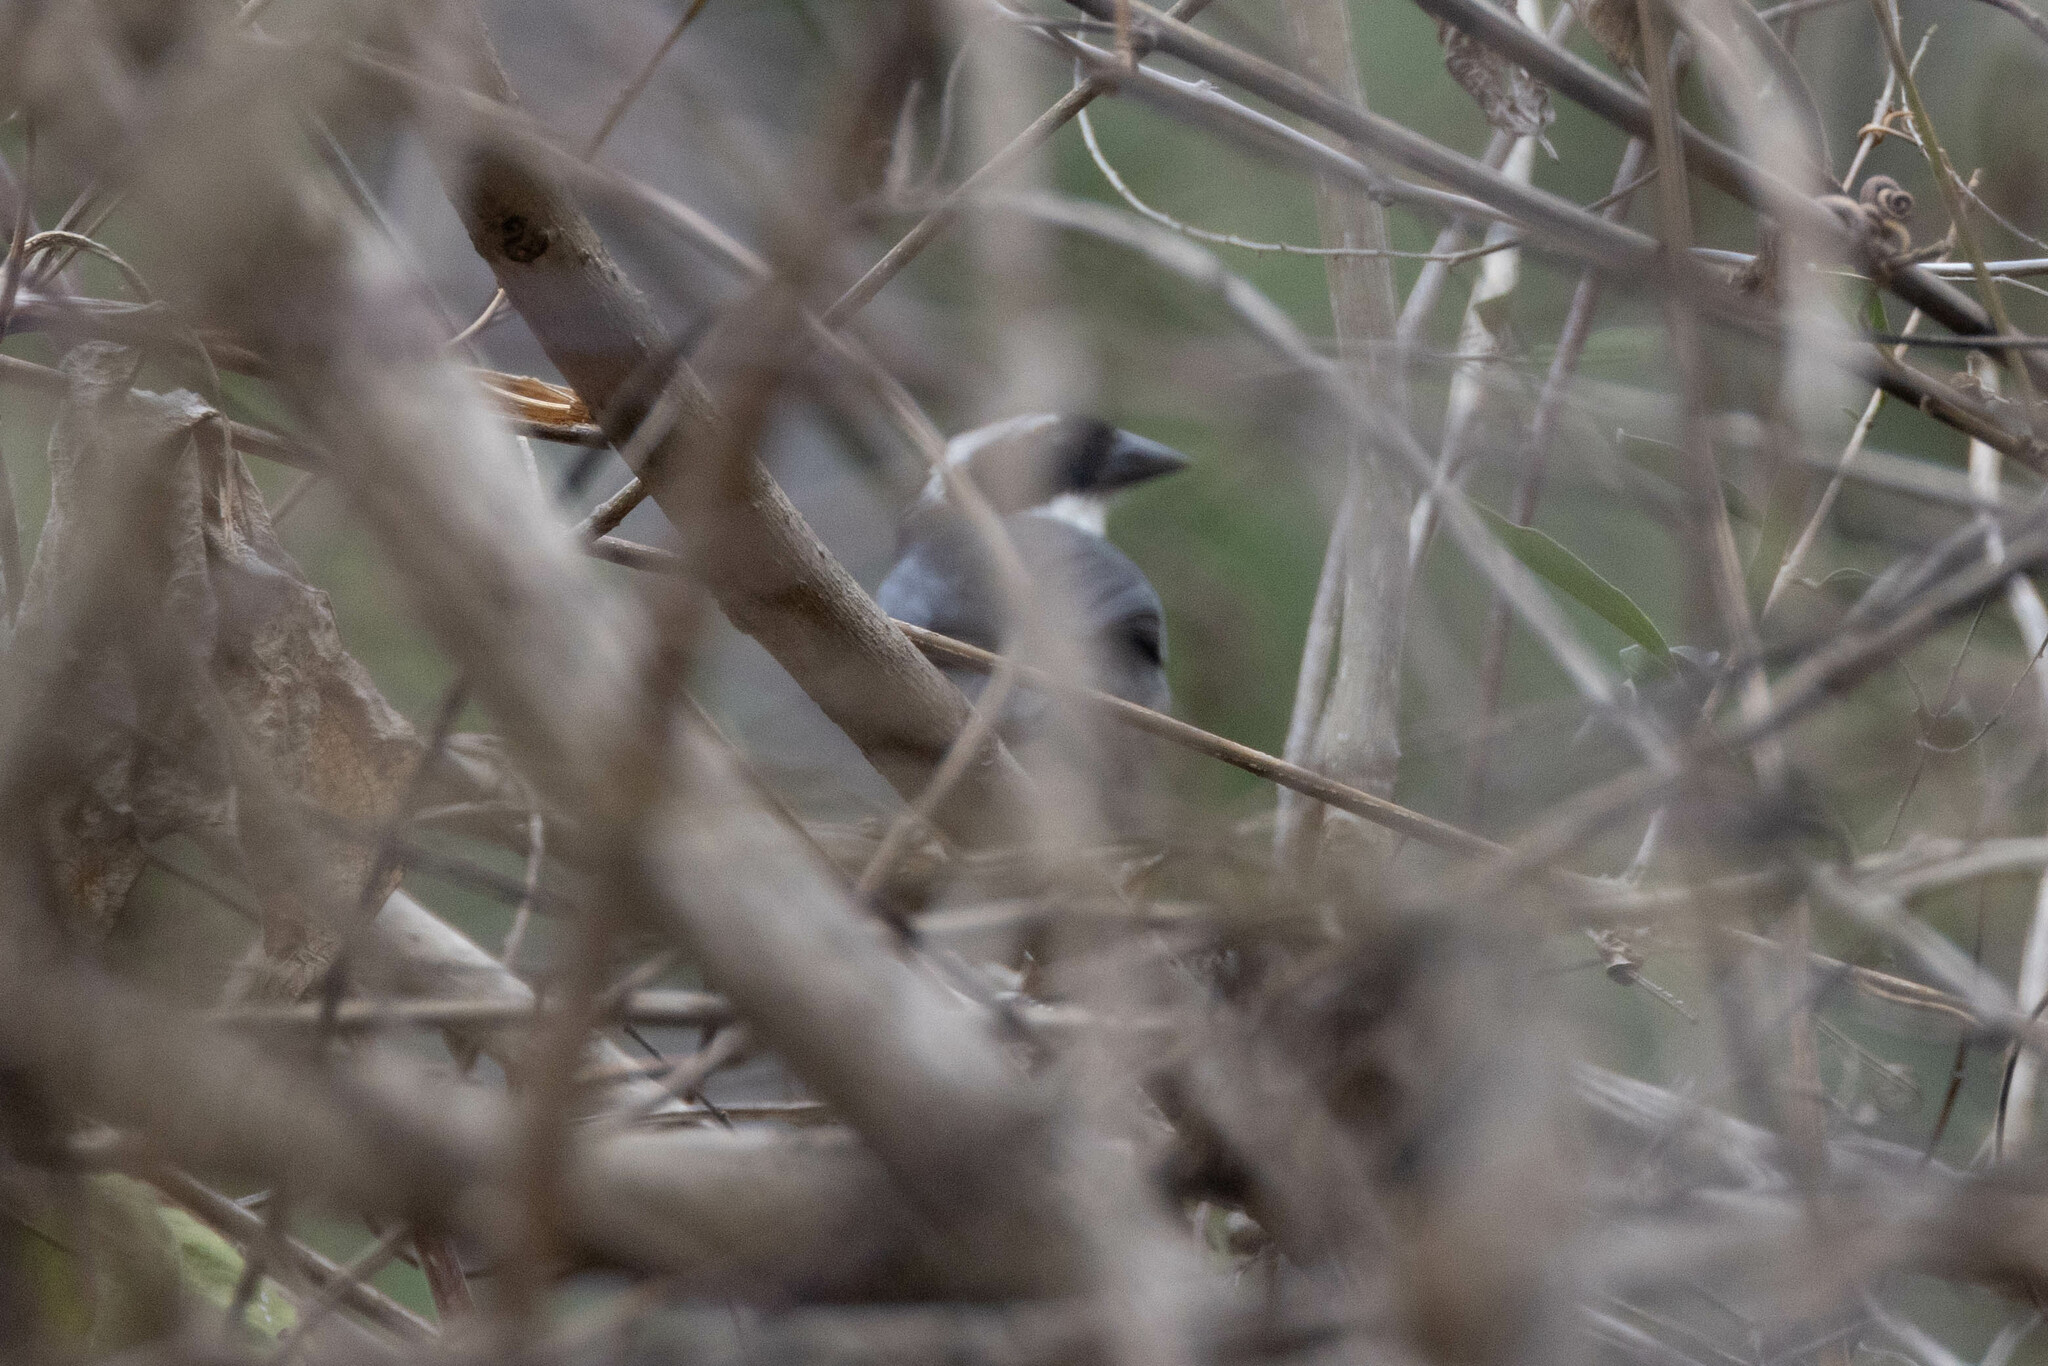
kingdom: Animalia
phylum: Chordata
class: Aves
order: Passeriformes
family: Passerellidae
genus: Arremon
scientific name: Arremon abeillei
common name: Black-capped sparrow
